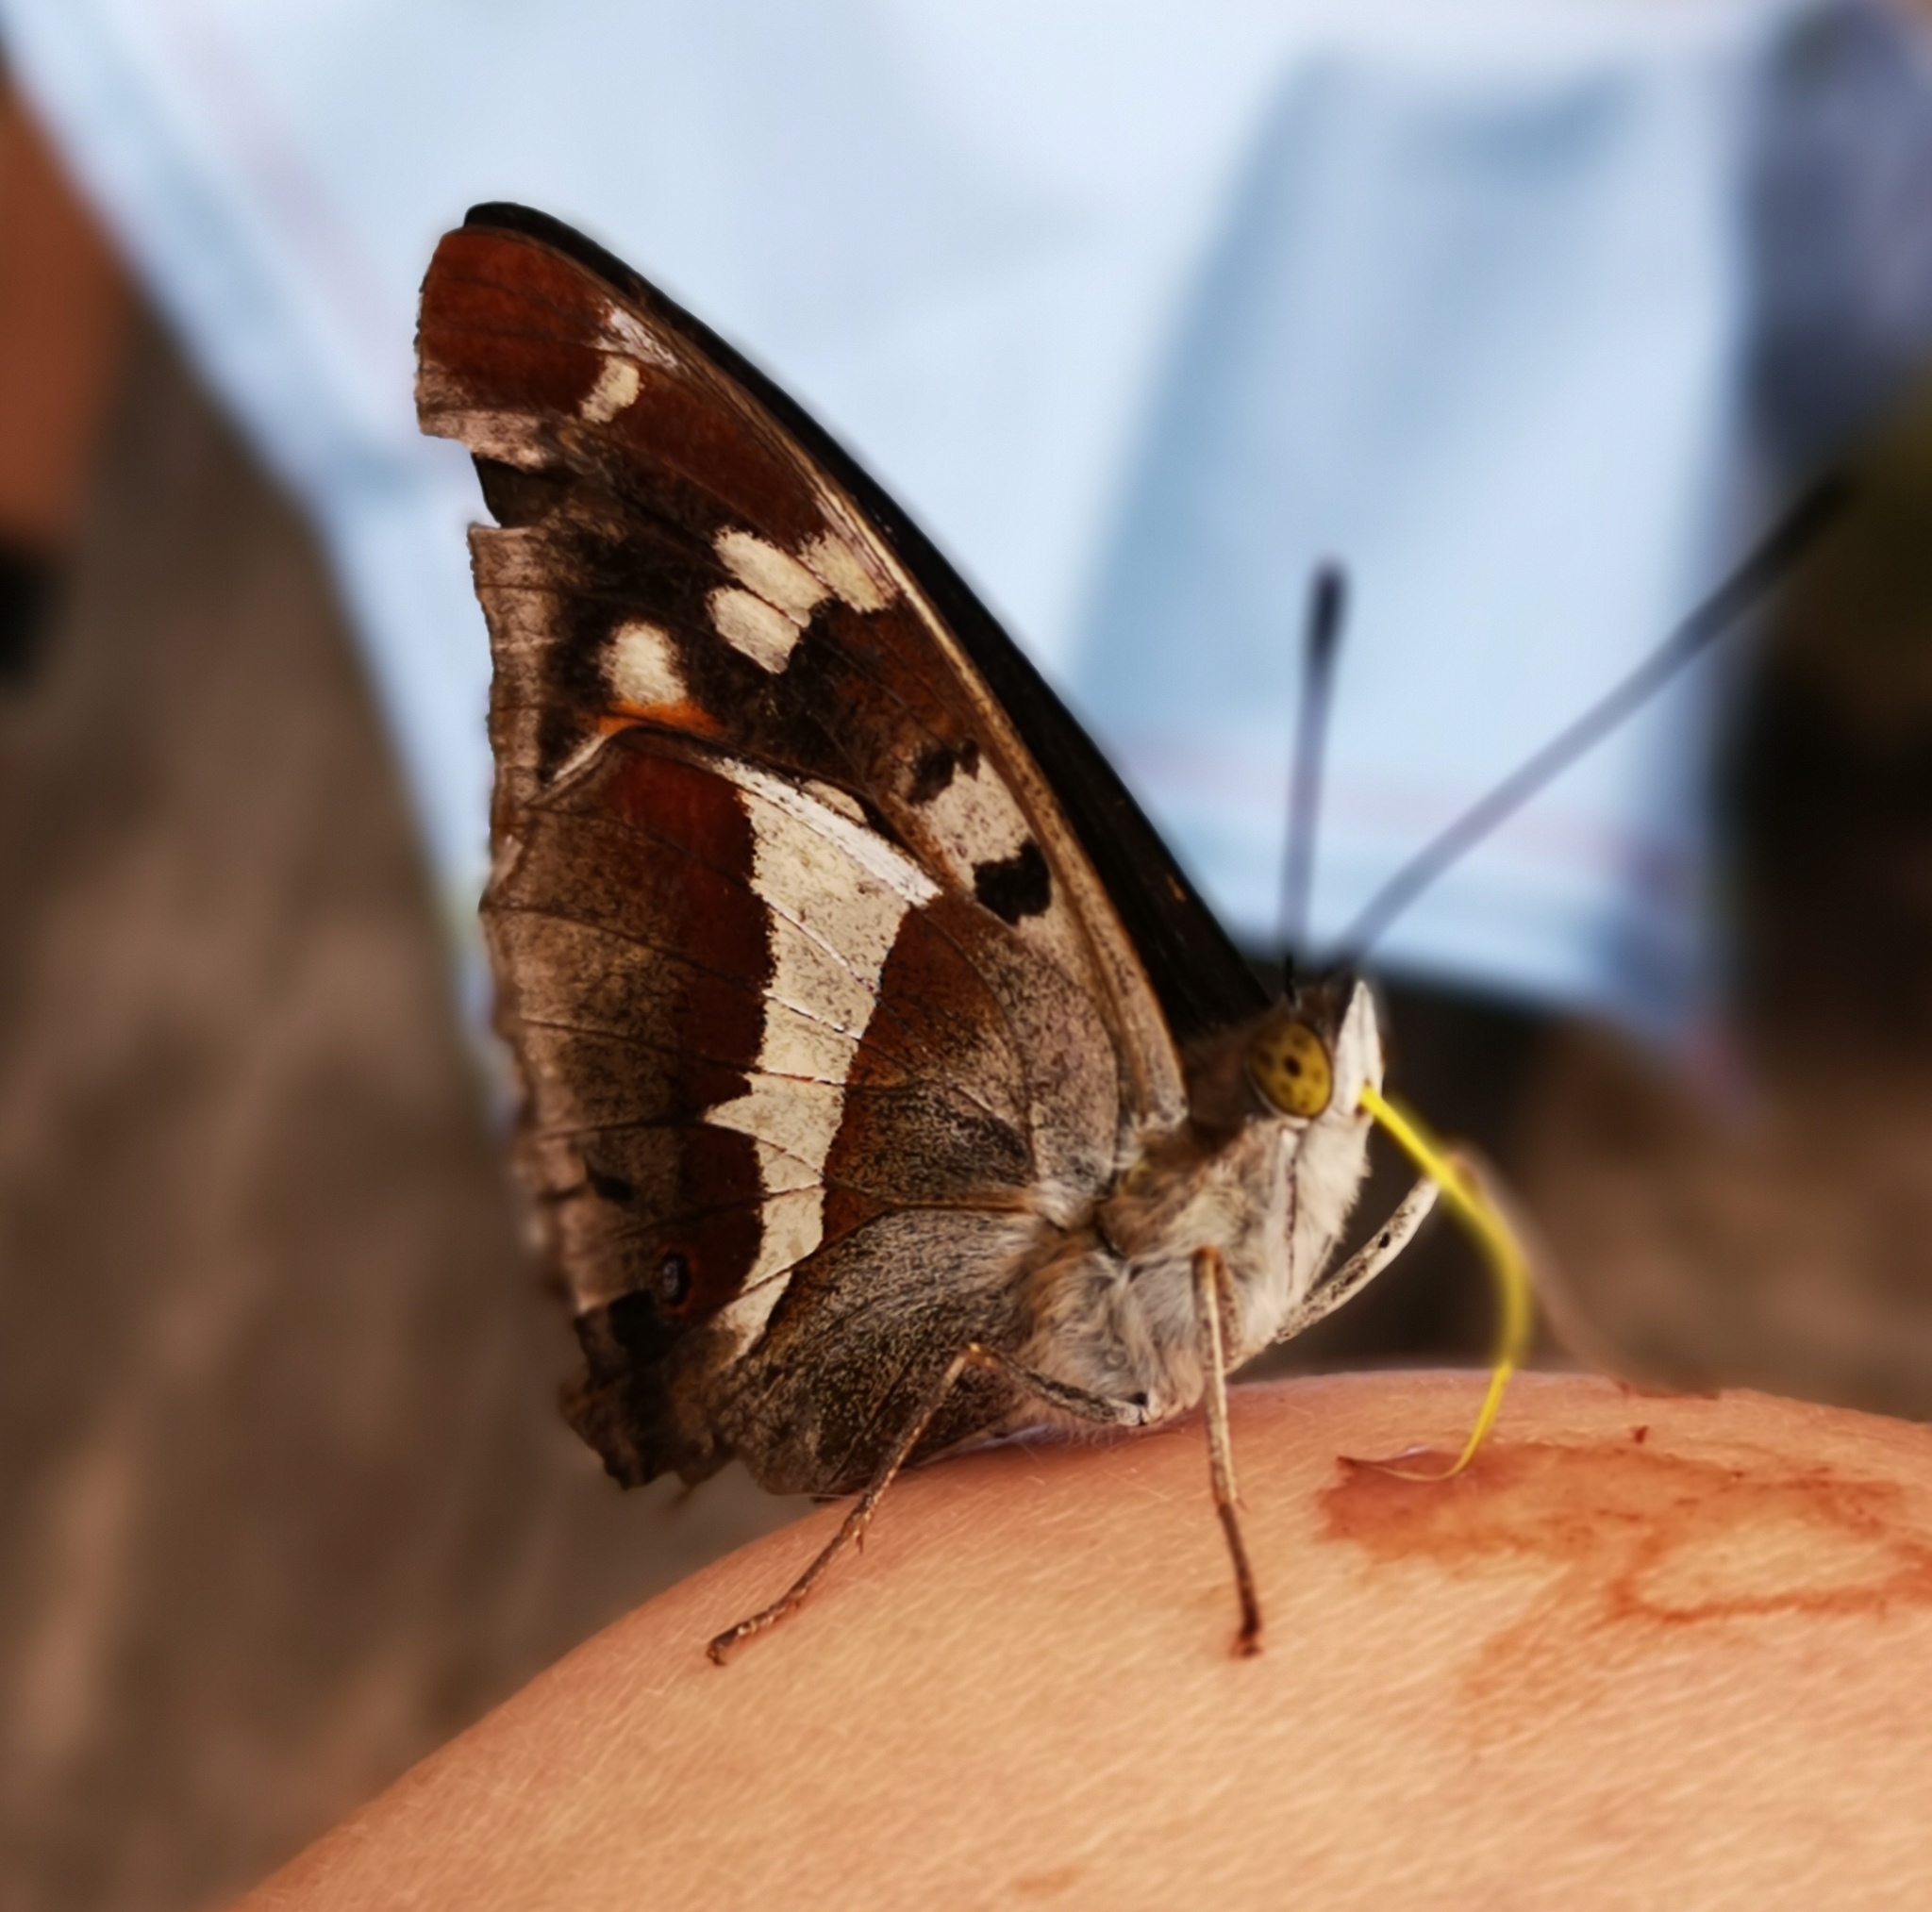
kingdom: Animalia
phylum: Arthropoda
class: Insecta
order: Lepidoptera
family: Nymphalidae
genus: Apatura
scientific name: Apatura iris
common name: Purple emperor
